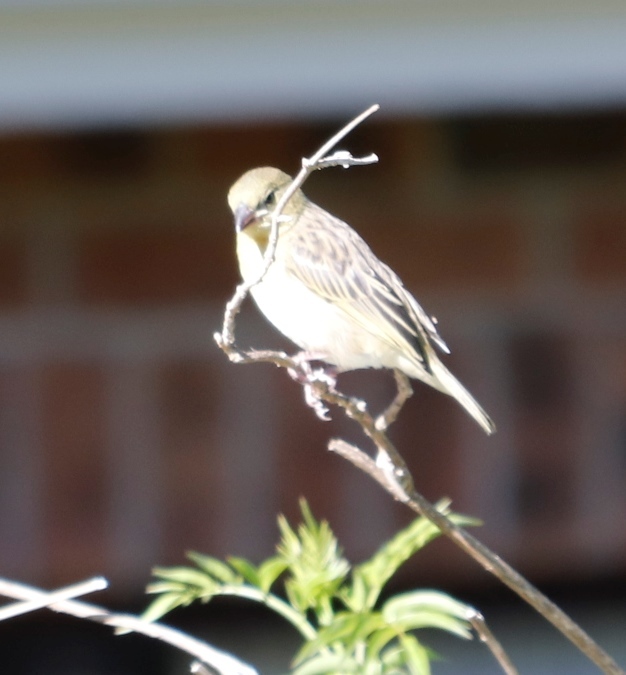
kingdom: Animalia
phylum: Chordata
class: Aves
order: Passeriformes
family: Ploceidae
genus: Ploceus
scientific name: Ploceus velatus
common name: Southern masked weaver
